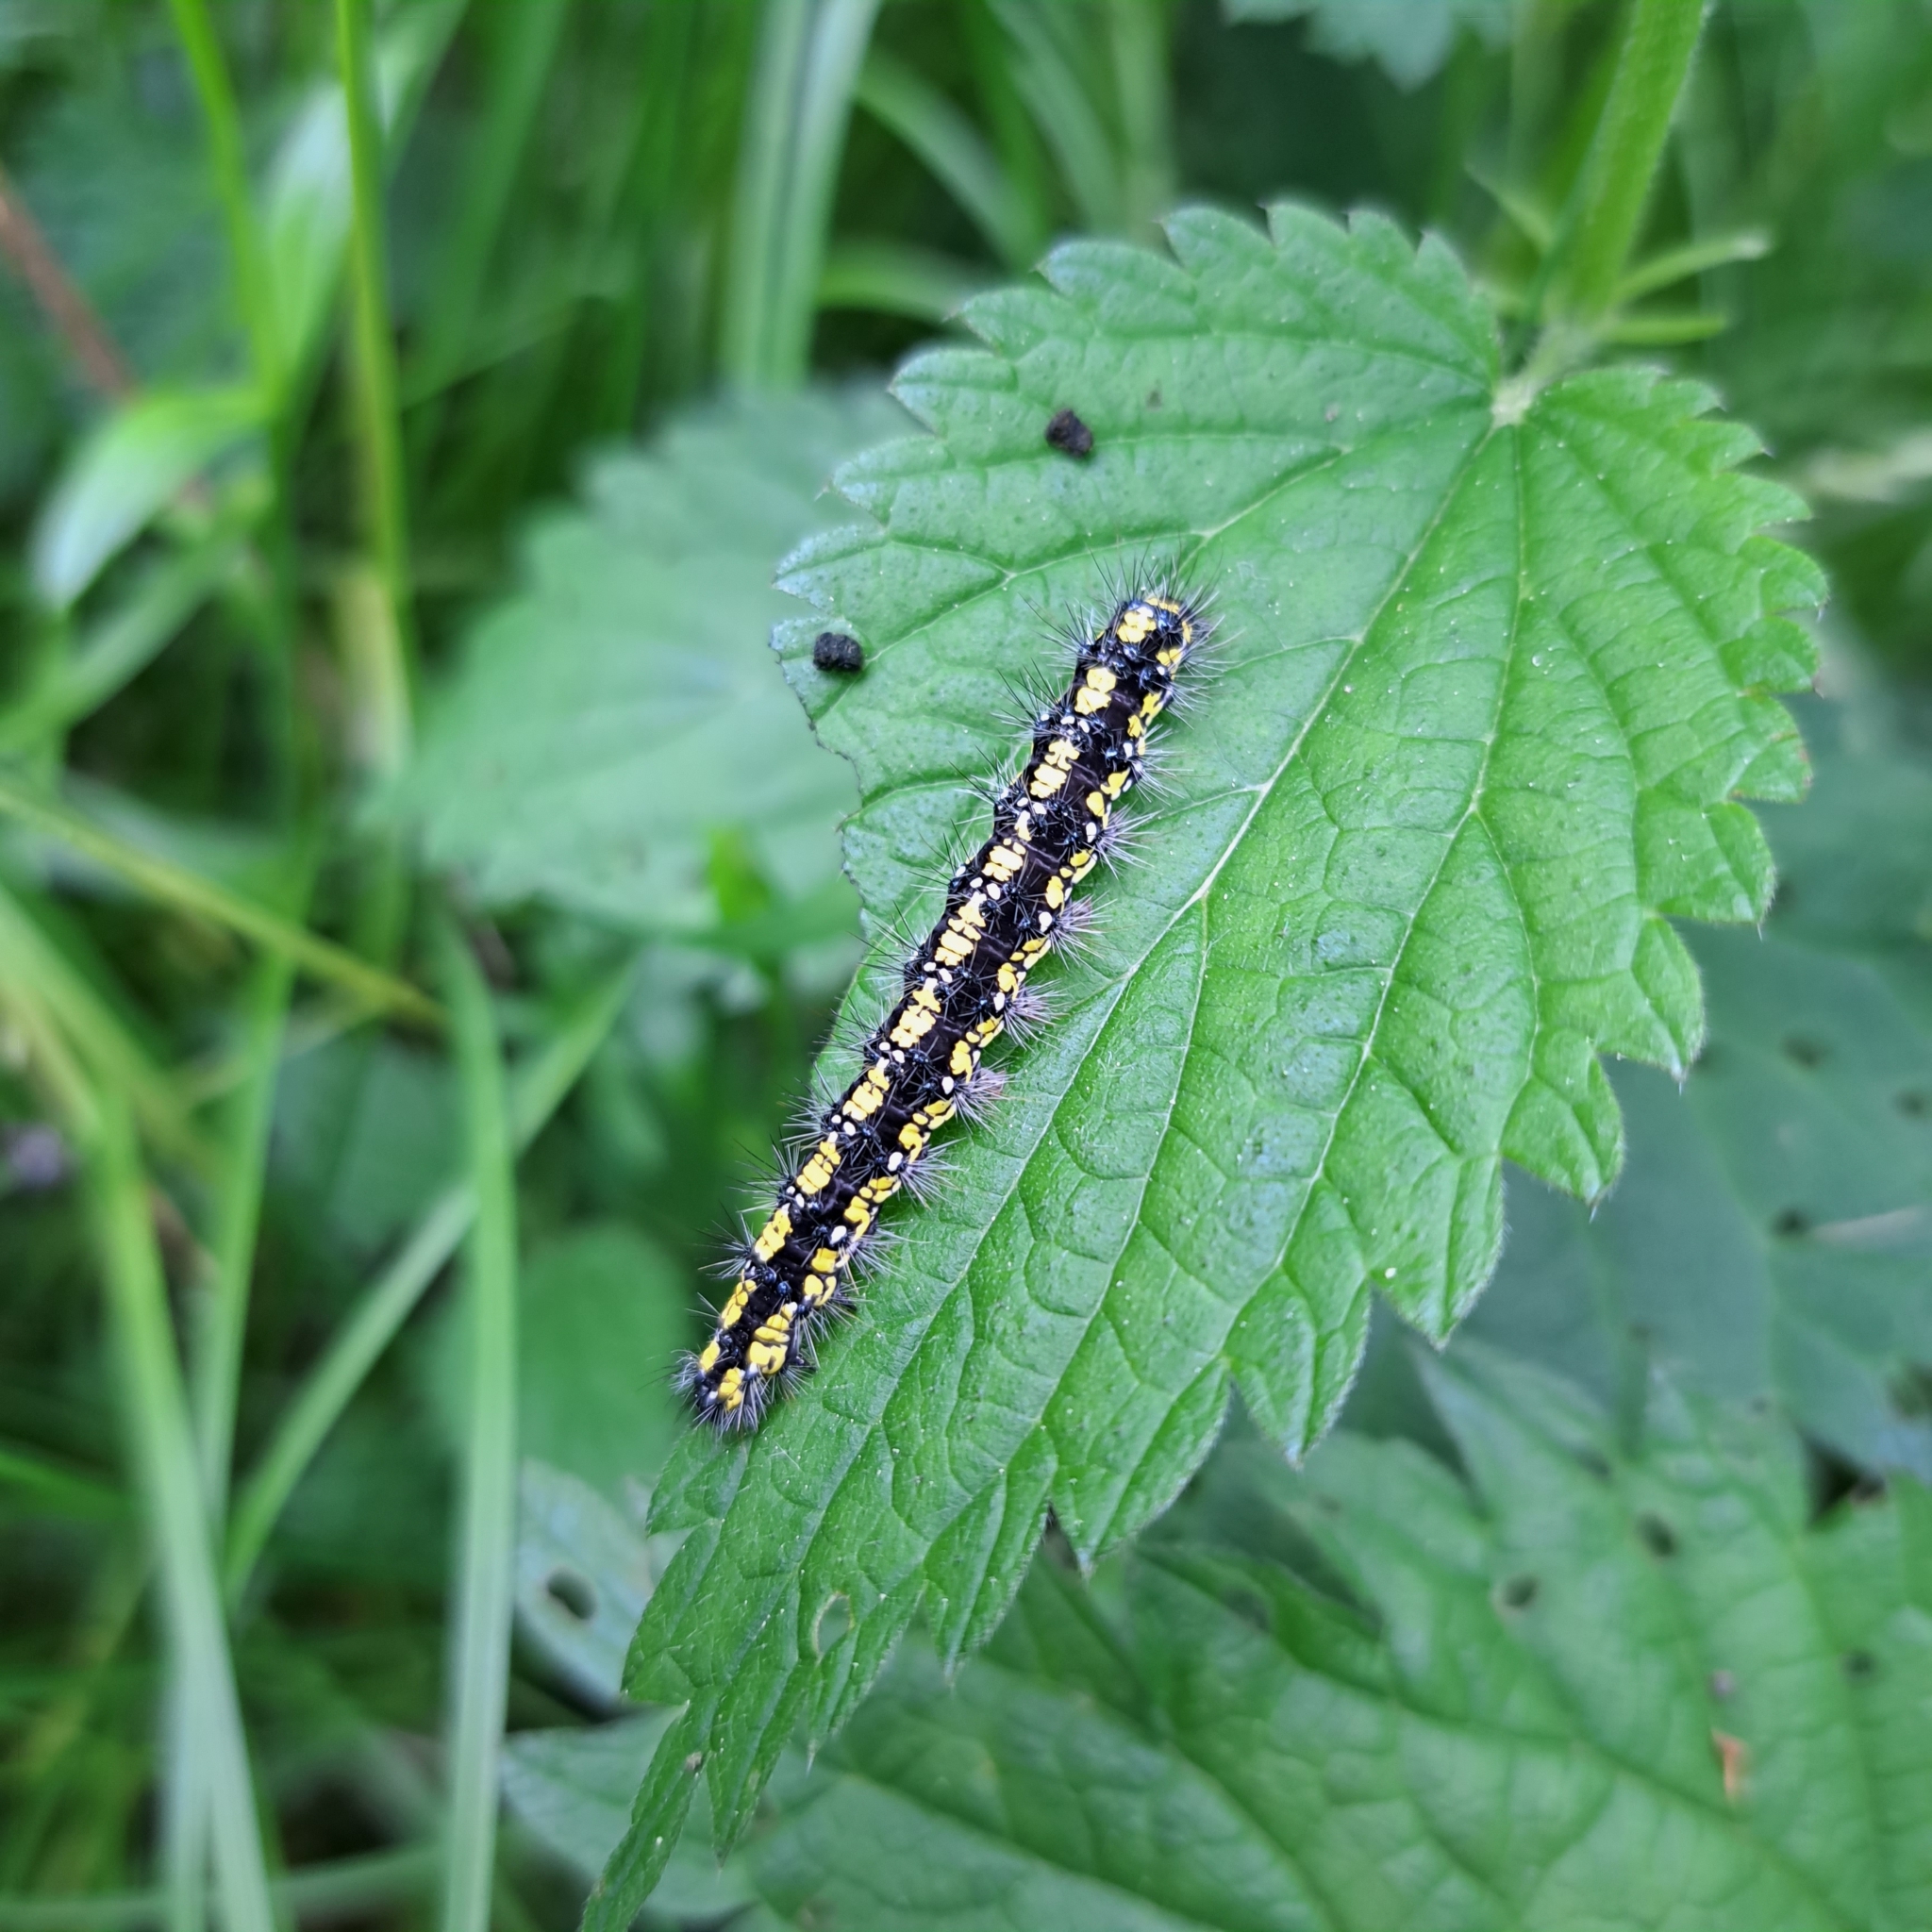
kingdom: Animalia
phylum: Arthropoda
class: Insecta
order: Lepidoptera
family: Erebidae
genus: Callimorpha
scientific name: Callimorpha dominula
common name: Scarlet tiger
